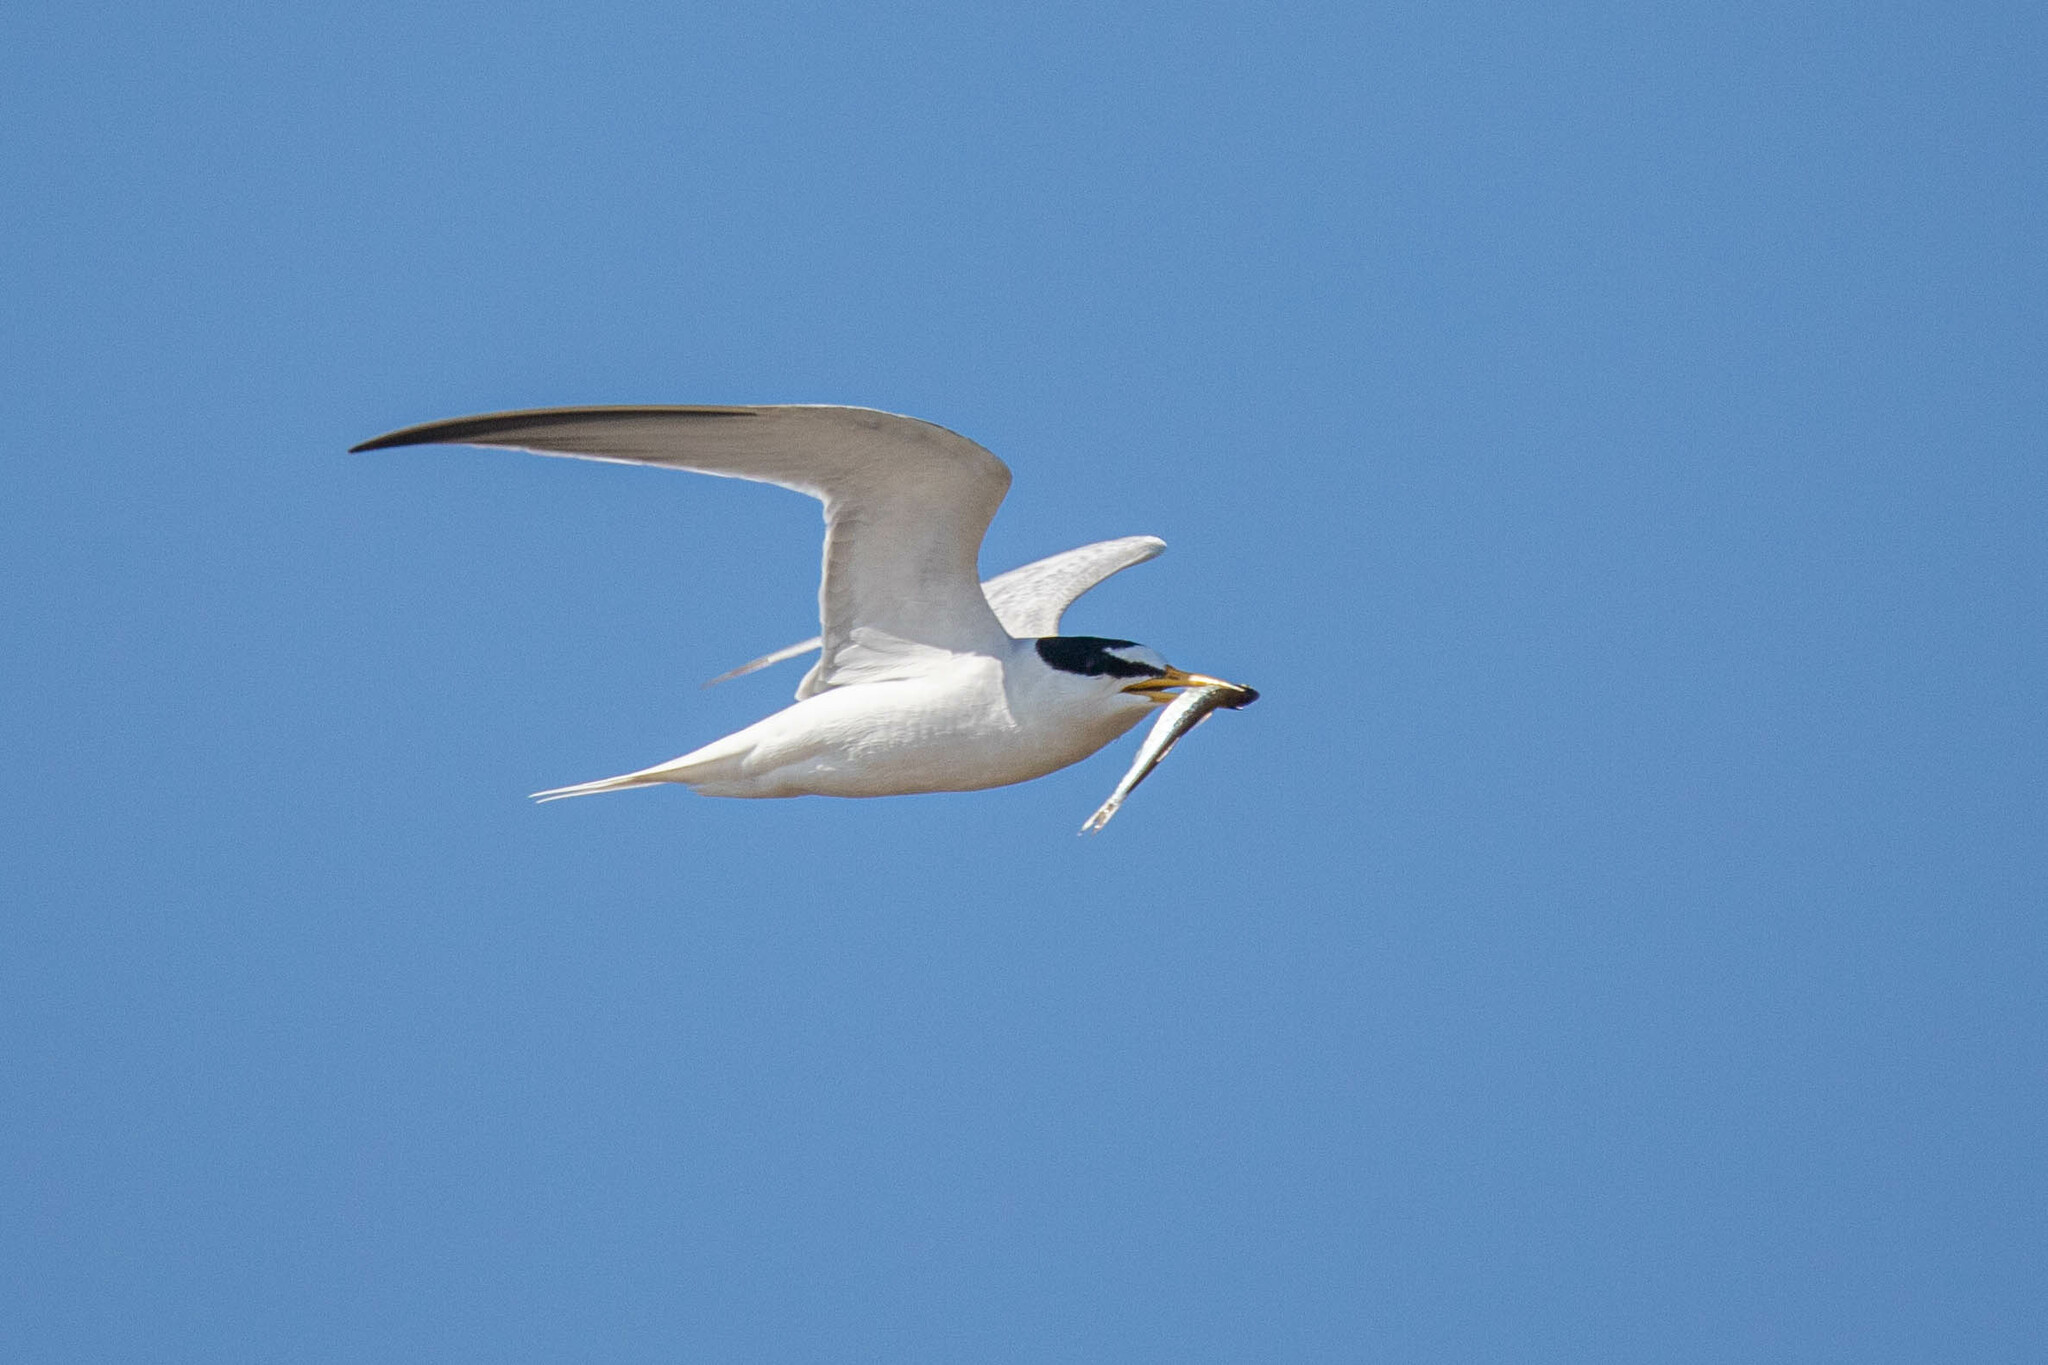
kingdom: Animalia
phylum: Chordata
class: Aves
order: Charadriiformes
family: Laridae
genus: Sternula
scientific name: Sternula albifrons
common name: Little tern
